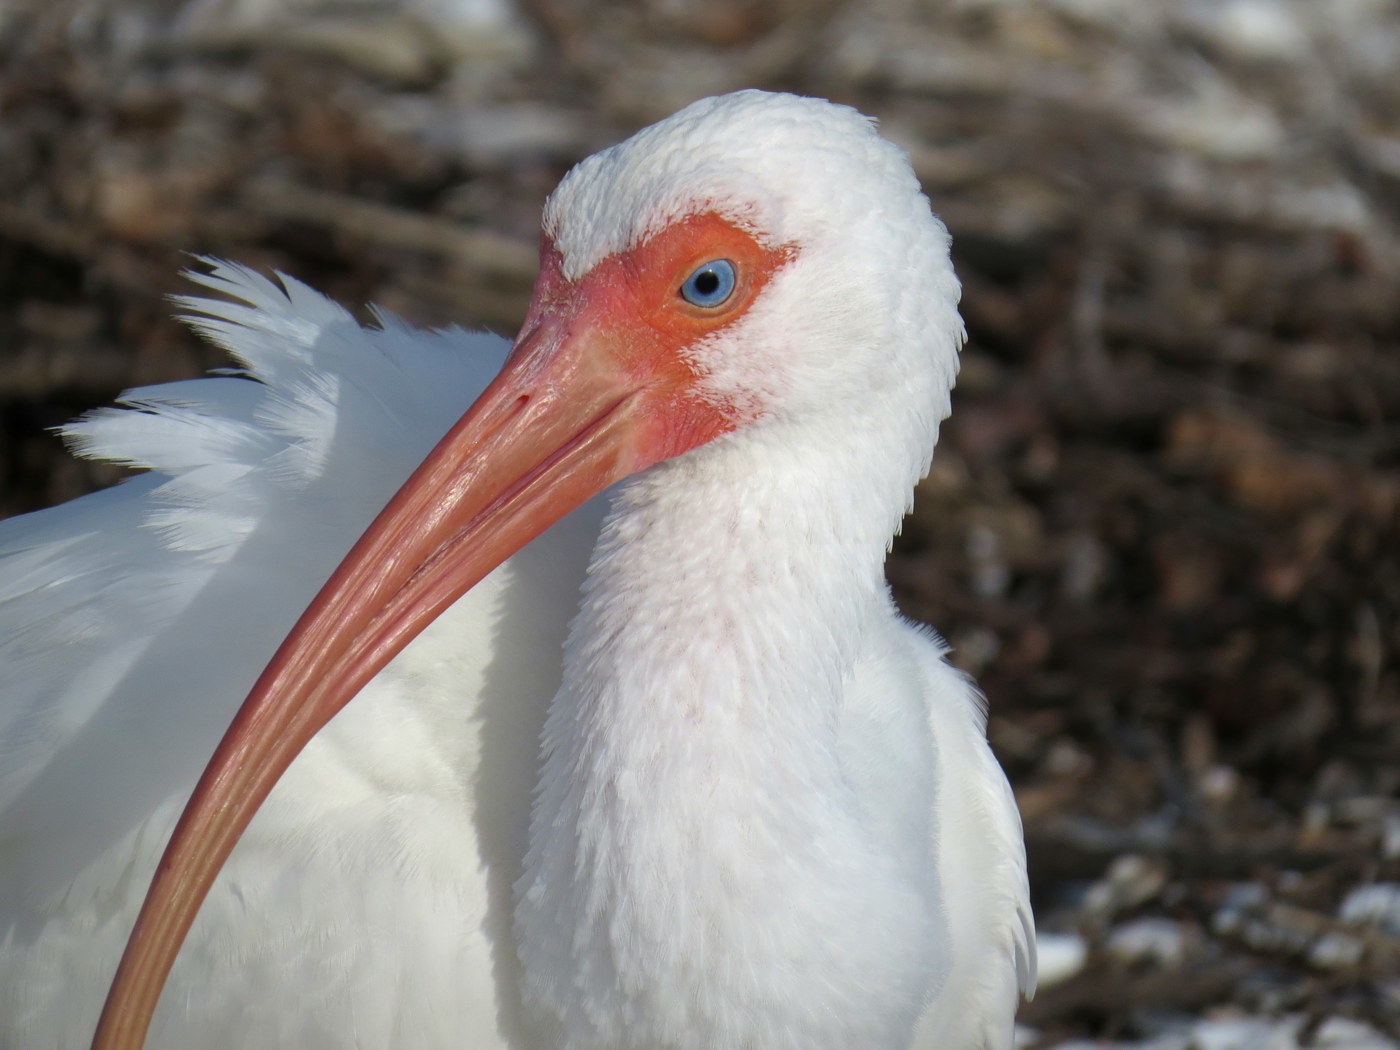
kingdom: Animalia
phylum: Chordata
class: Aves
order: Pelecaniformes
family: Threskiornithidae
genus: Eudocimus
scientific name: Eudocimus albus
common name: White ibis
